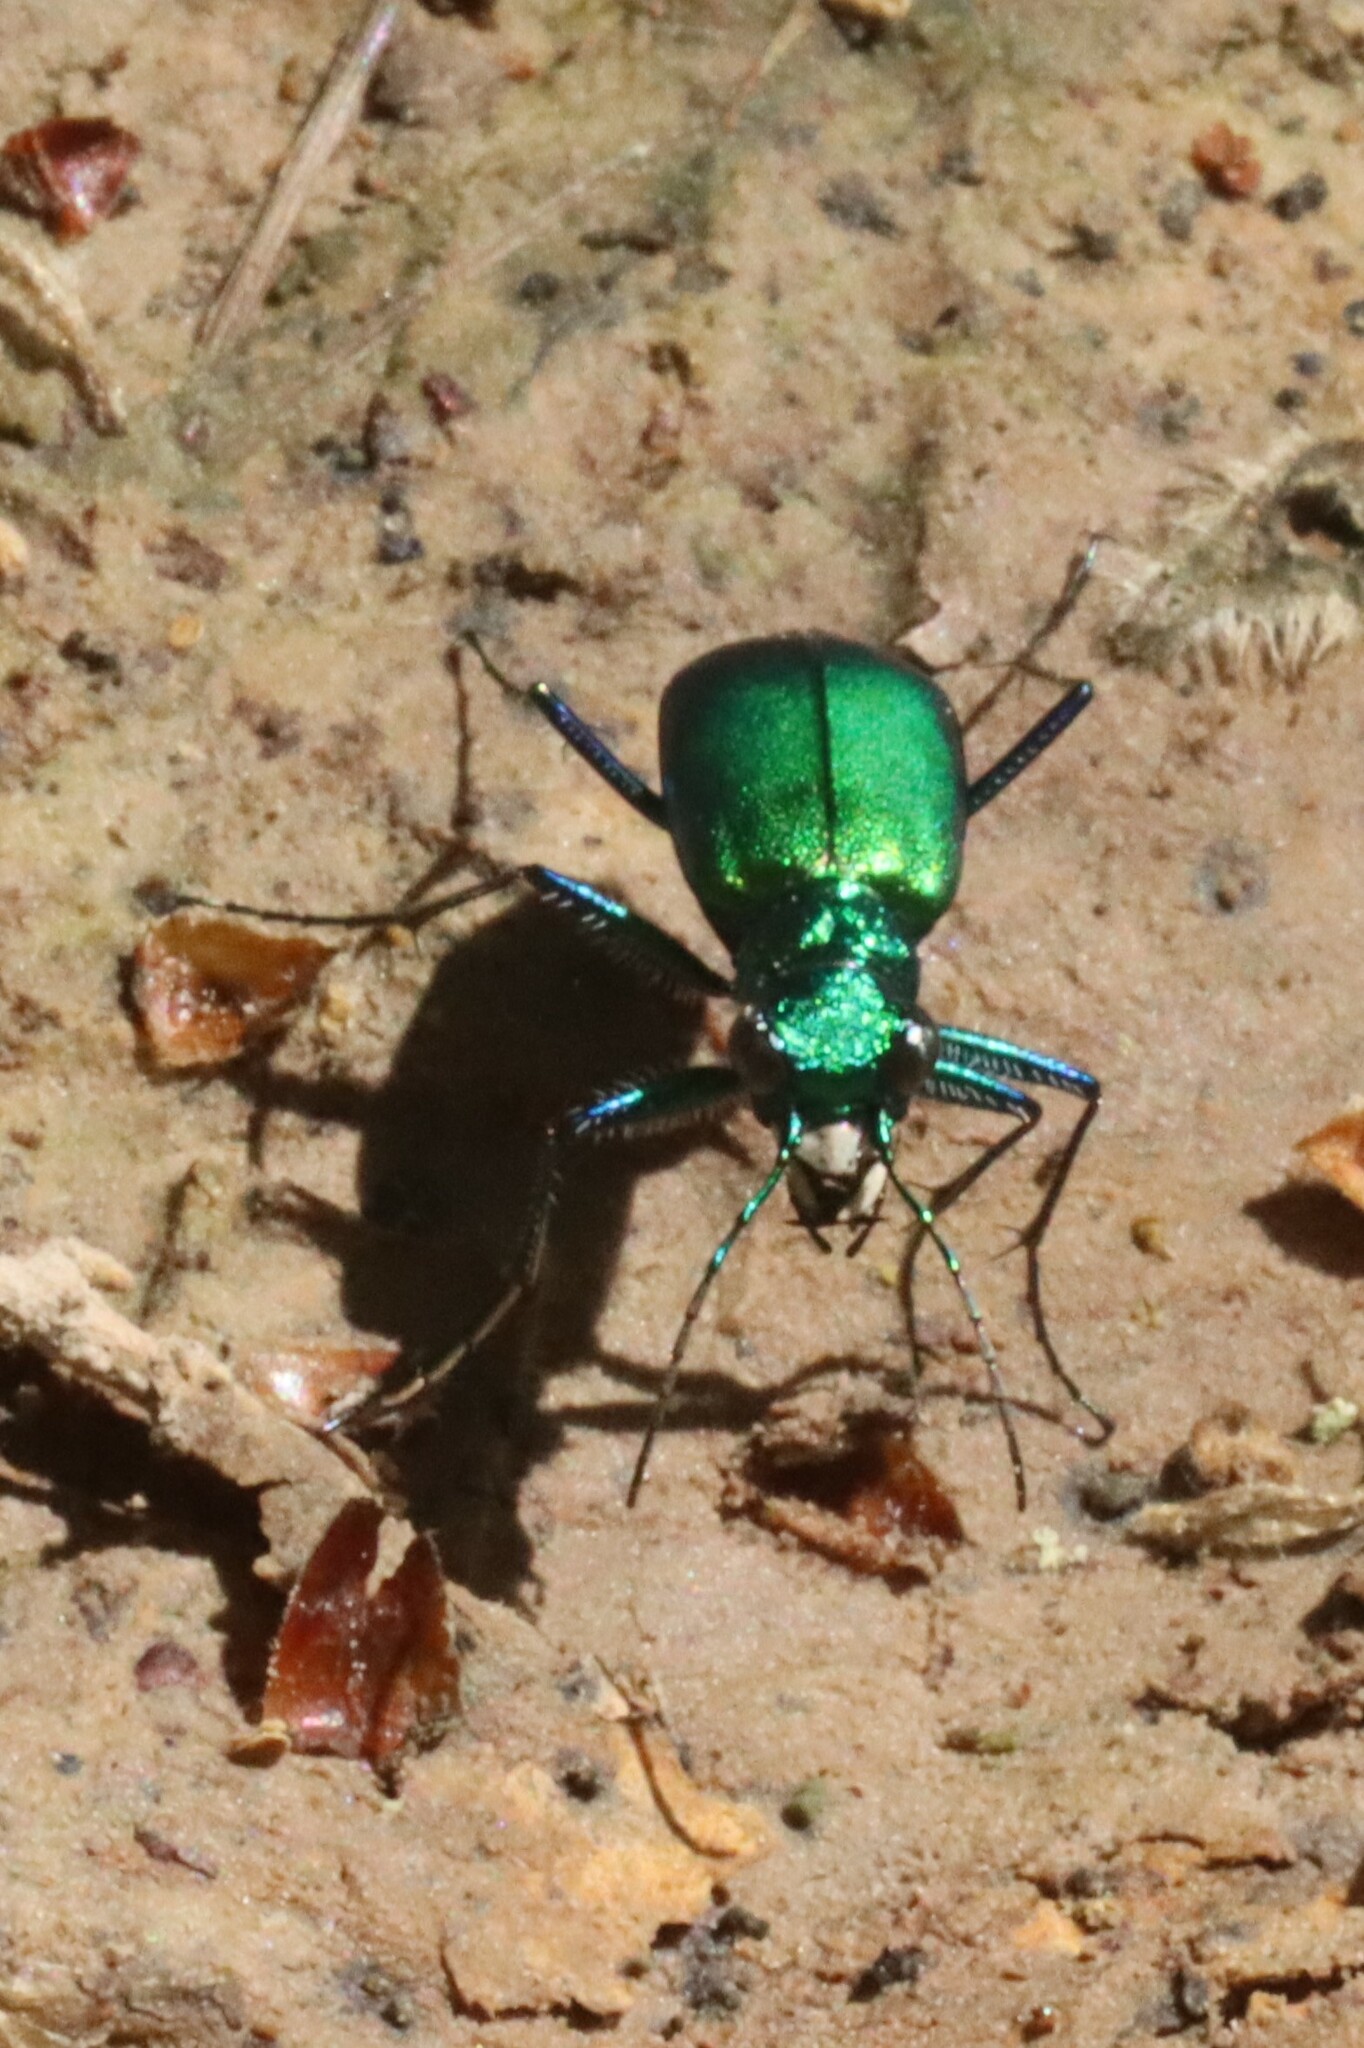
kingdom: Animalia
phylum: Arthropoda
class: Insecta
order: Coleoptera
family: Carabidae
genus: Cicindela
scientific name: Cicindela sexguttata
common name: Six-spotted tiger beetle
